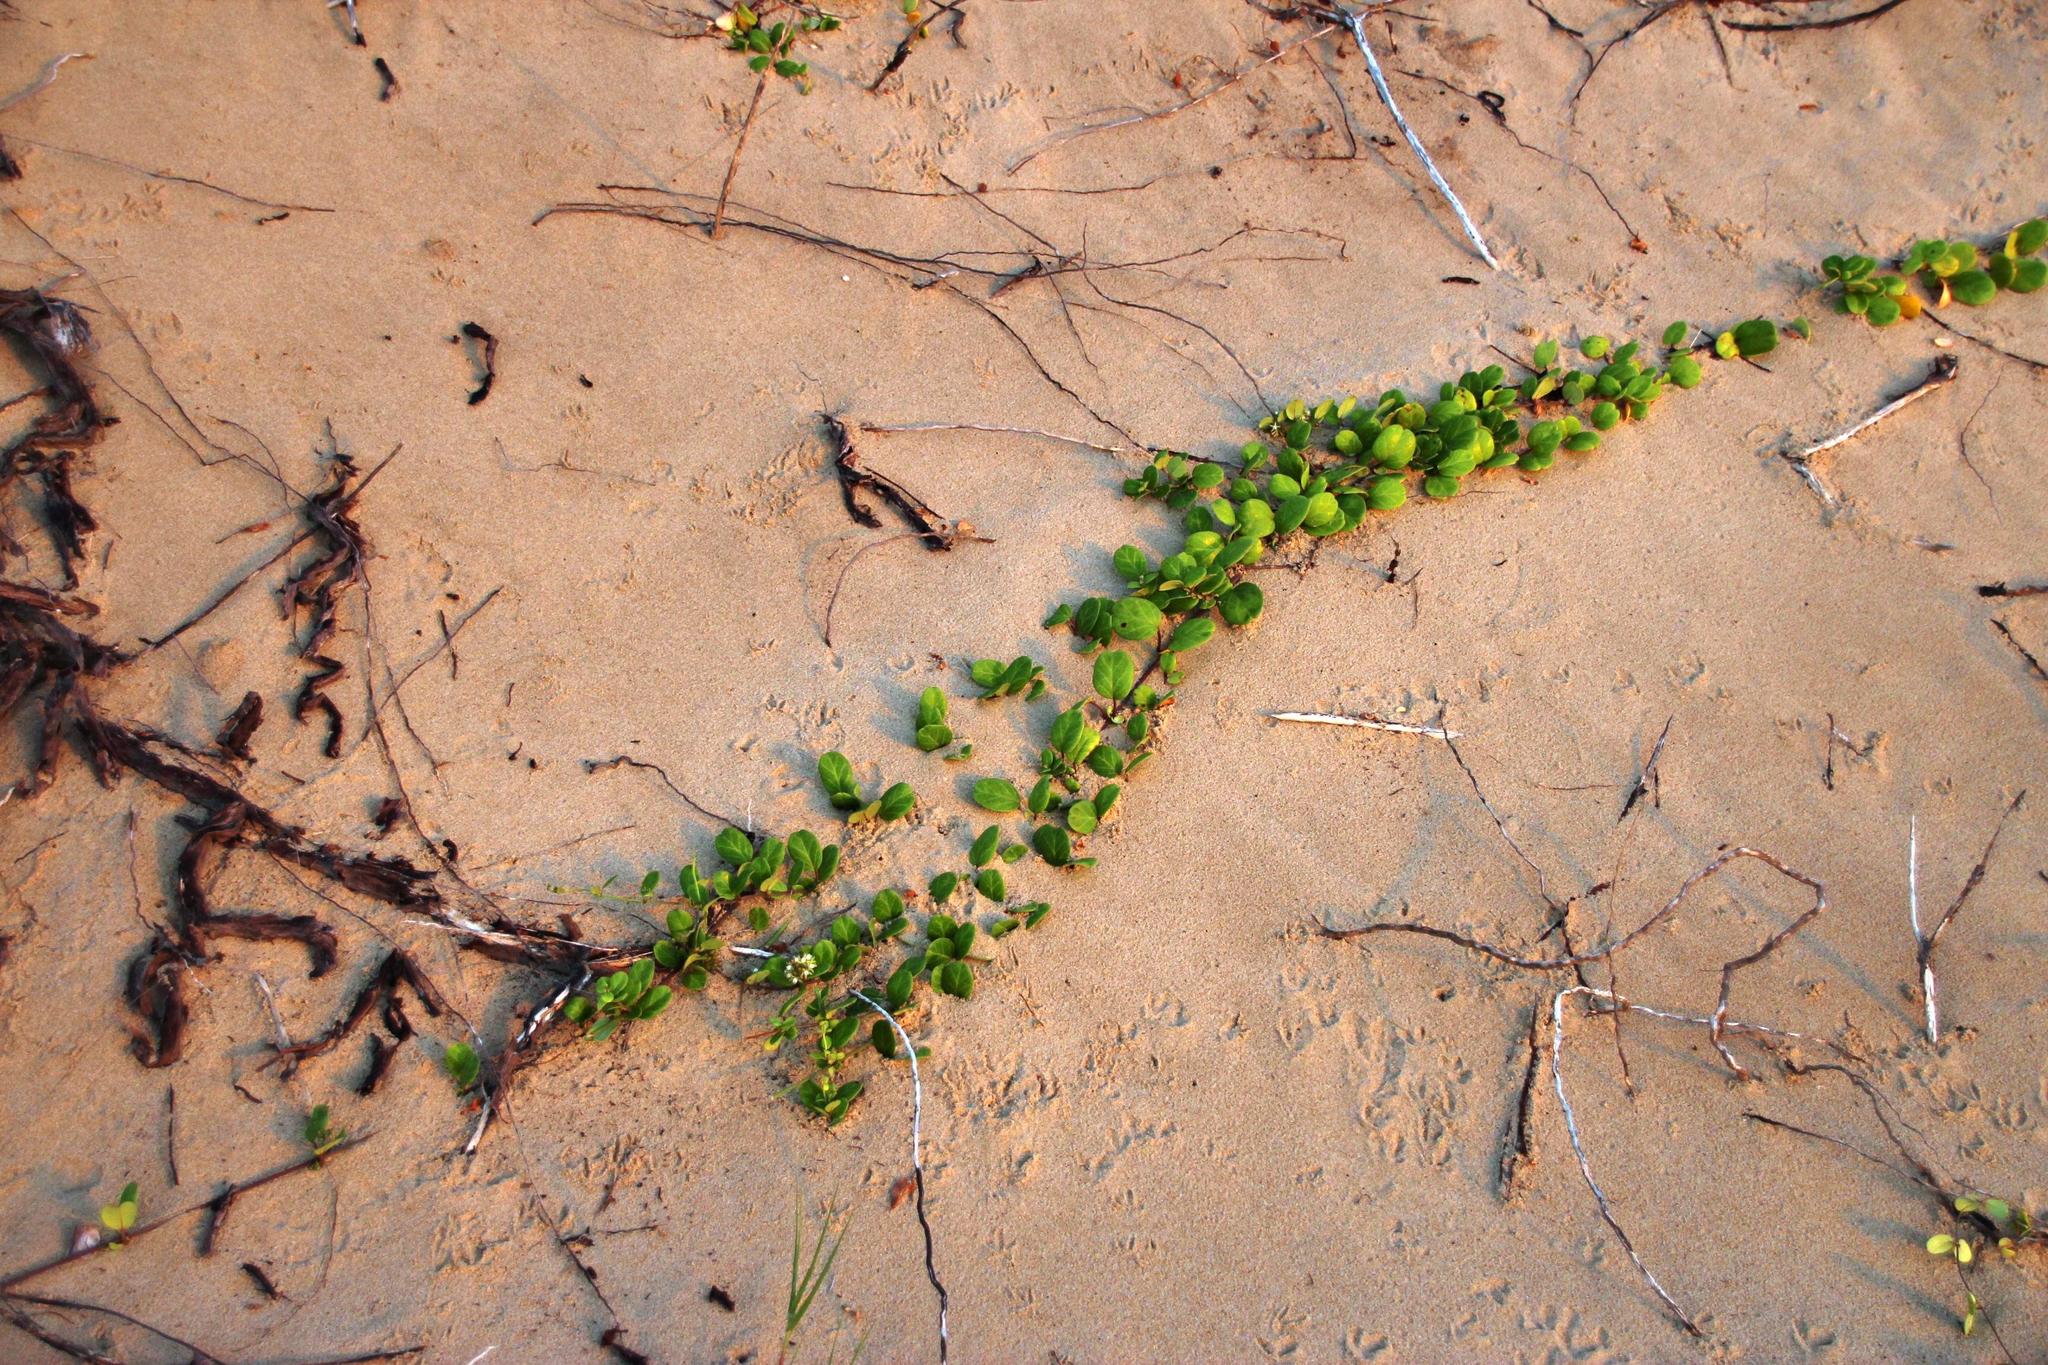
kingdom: Plantae
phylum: Tracheophyta
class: Magnoliopsida
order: Gentianales
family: Apocynaceae
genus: Cynanchum
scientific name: Cynanchum natalitium
